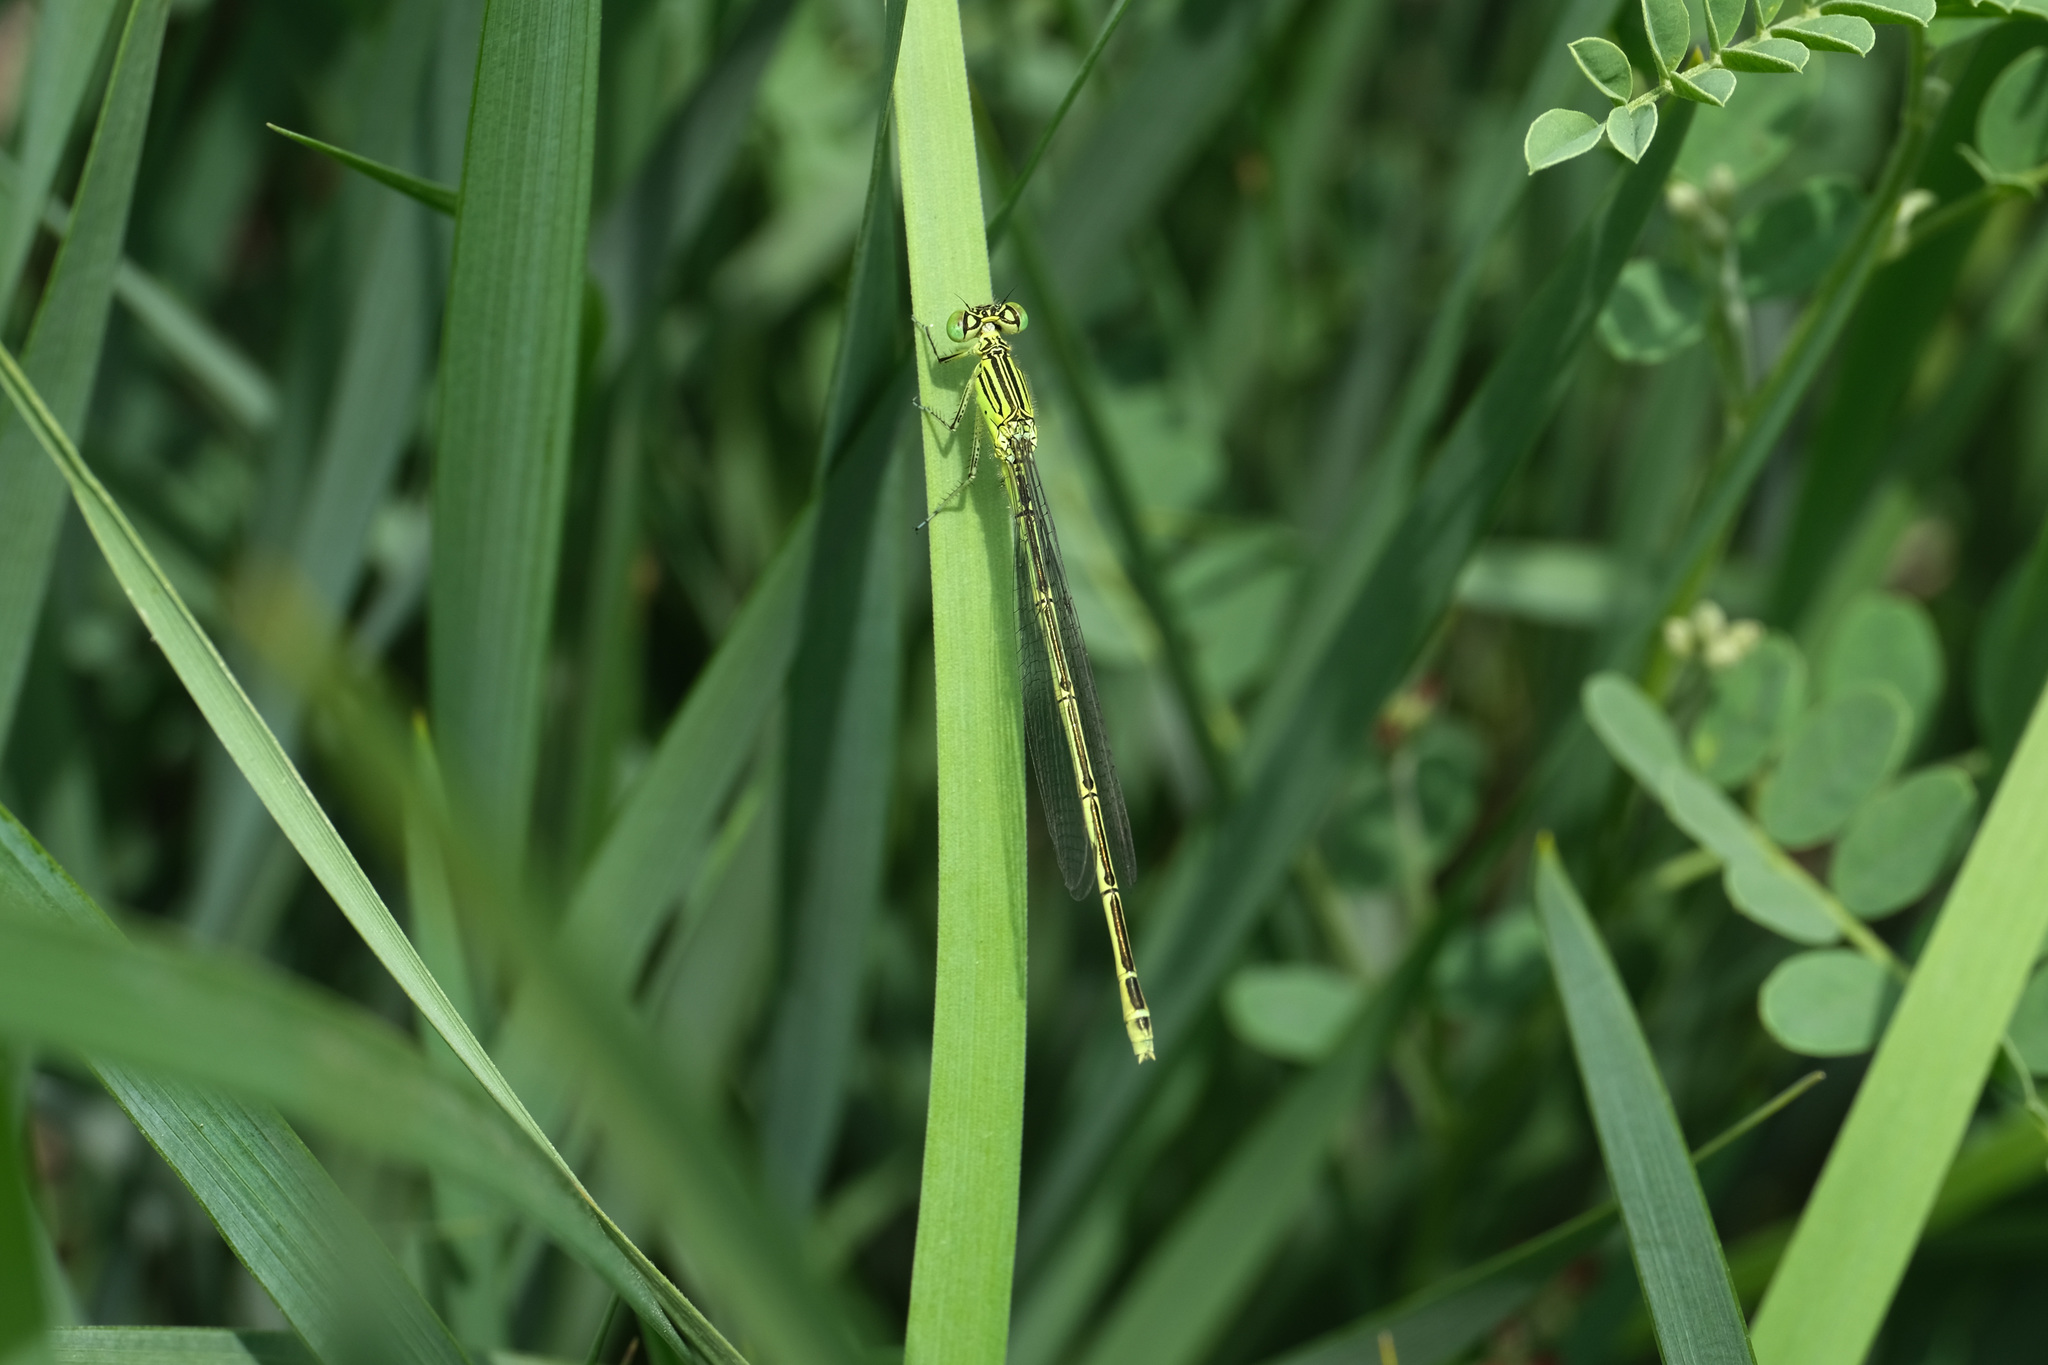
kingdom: Animalia
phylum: Arthropoda
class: Insecta
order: Odonata
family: Coenagrionidae
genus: Paracercion
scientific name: Paracercion plagiosum
